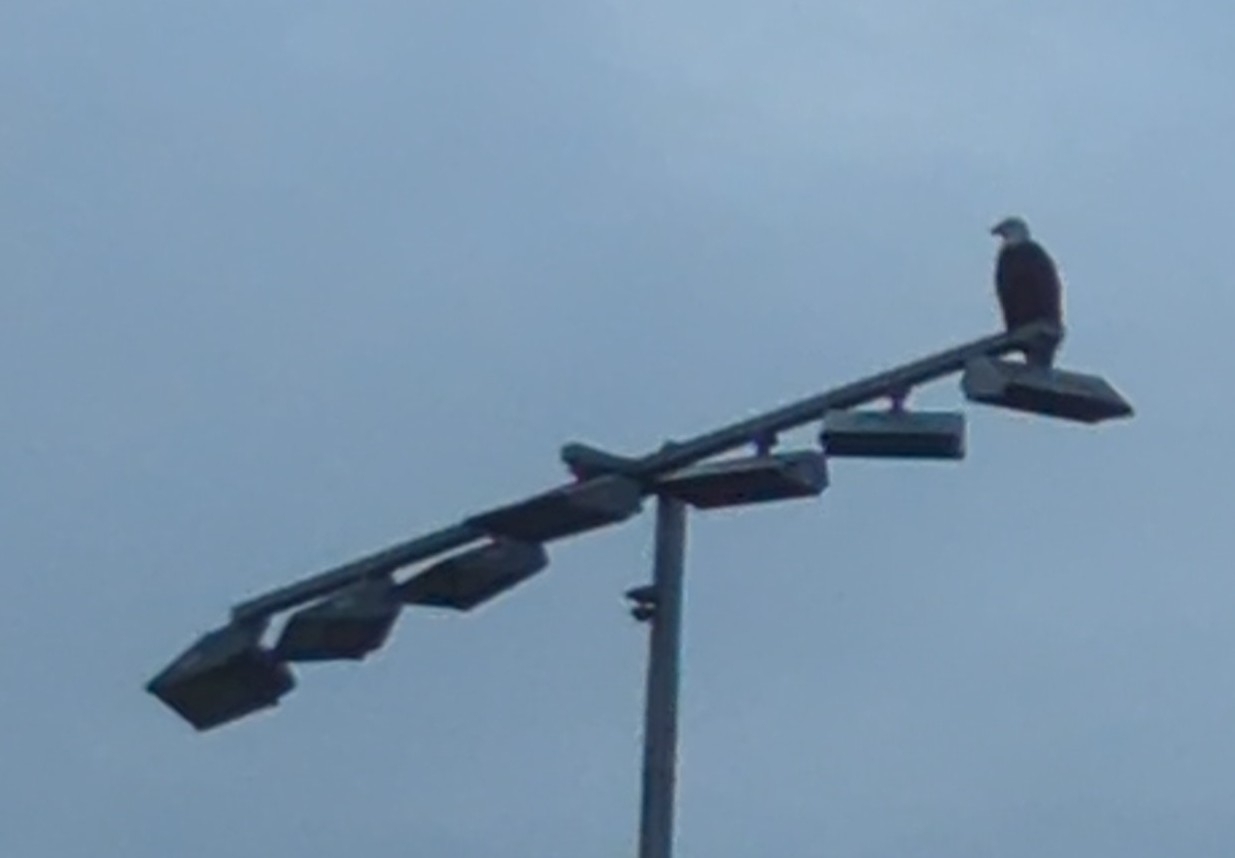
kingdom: Animalia
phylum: Chordata
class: Aves
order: Accipitriformes
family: Accipitridae
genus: Haliaeetus
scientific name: Haliaeetus leucocephalus
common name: Bald eagle
